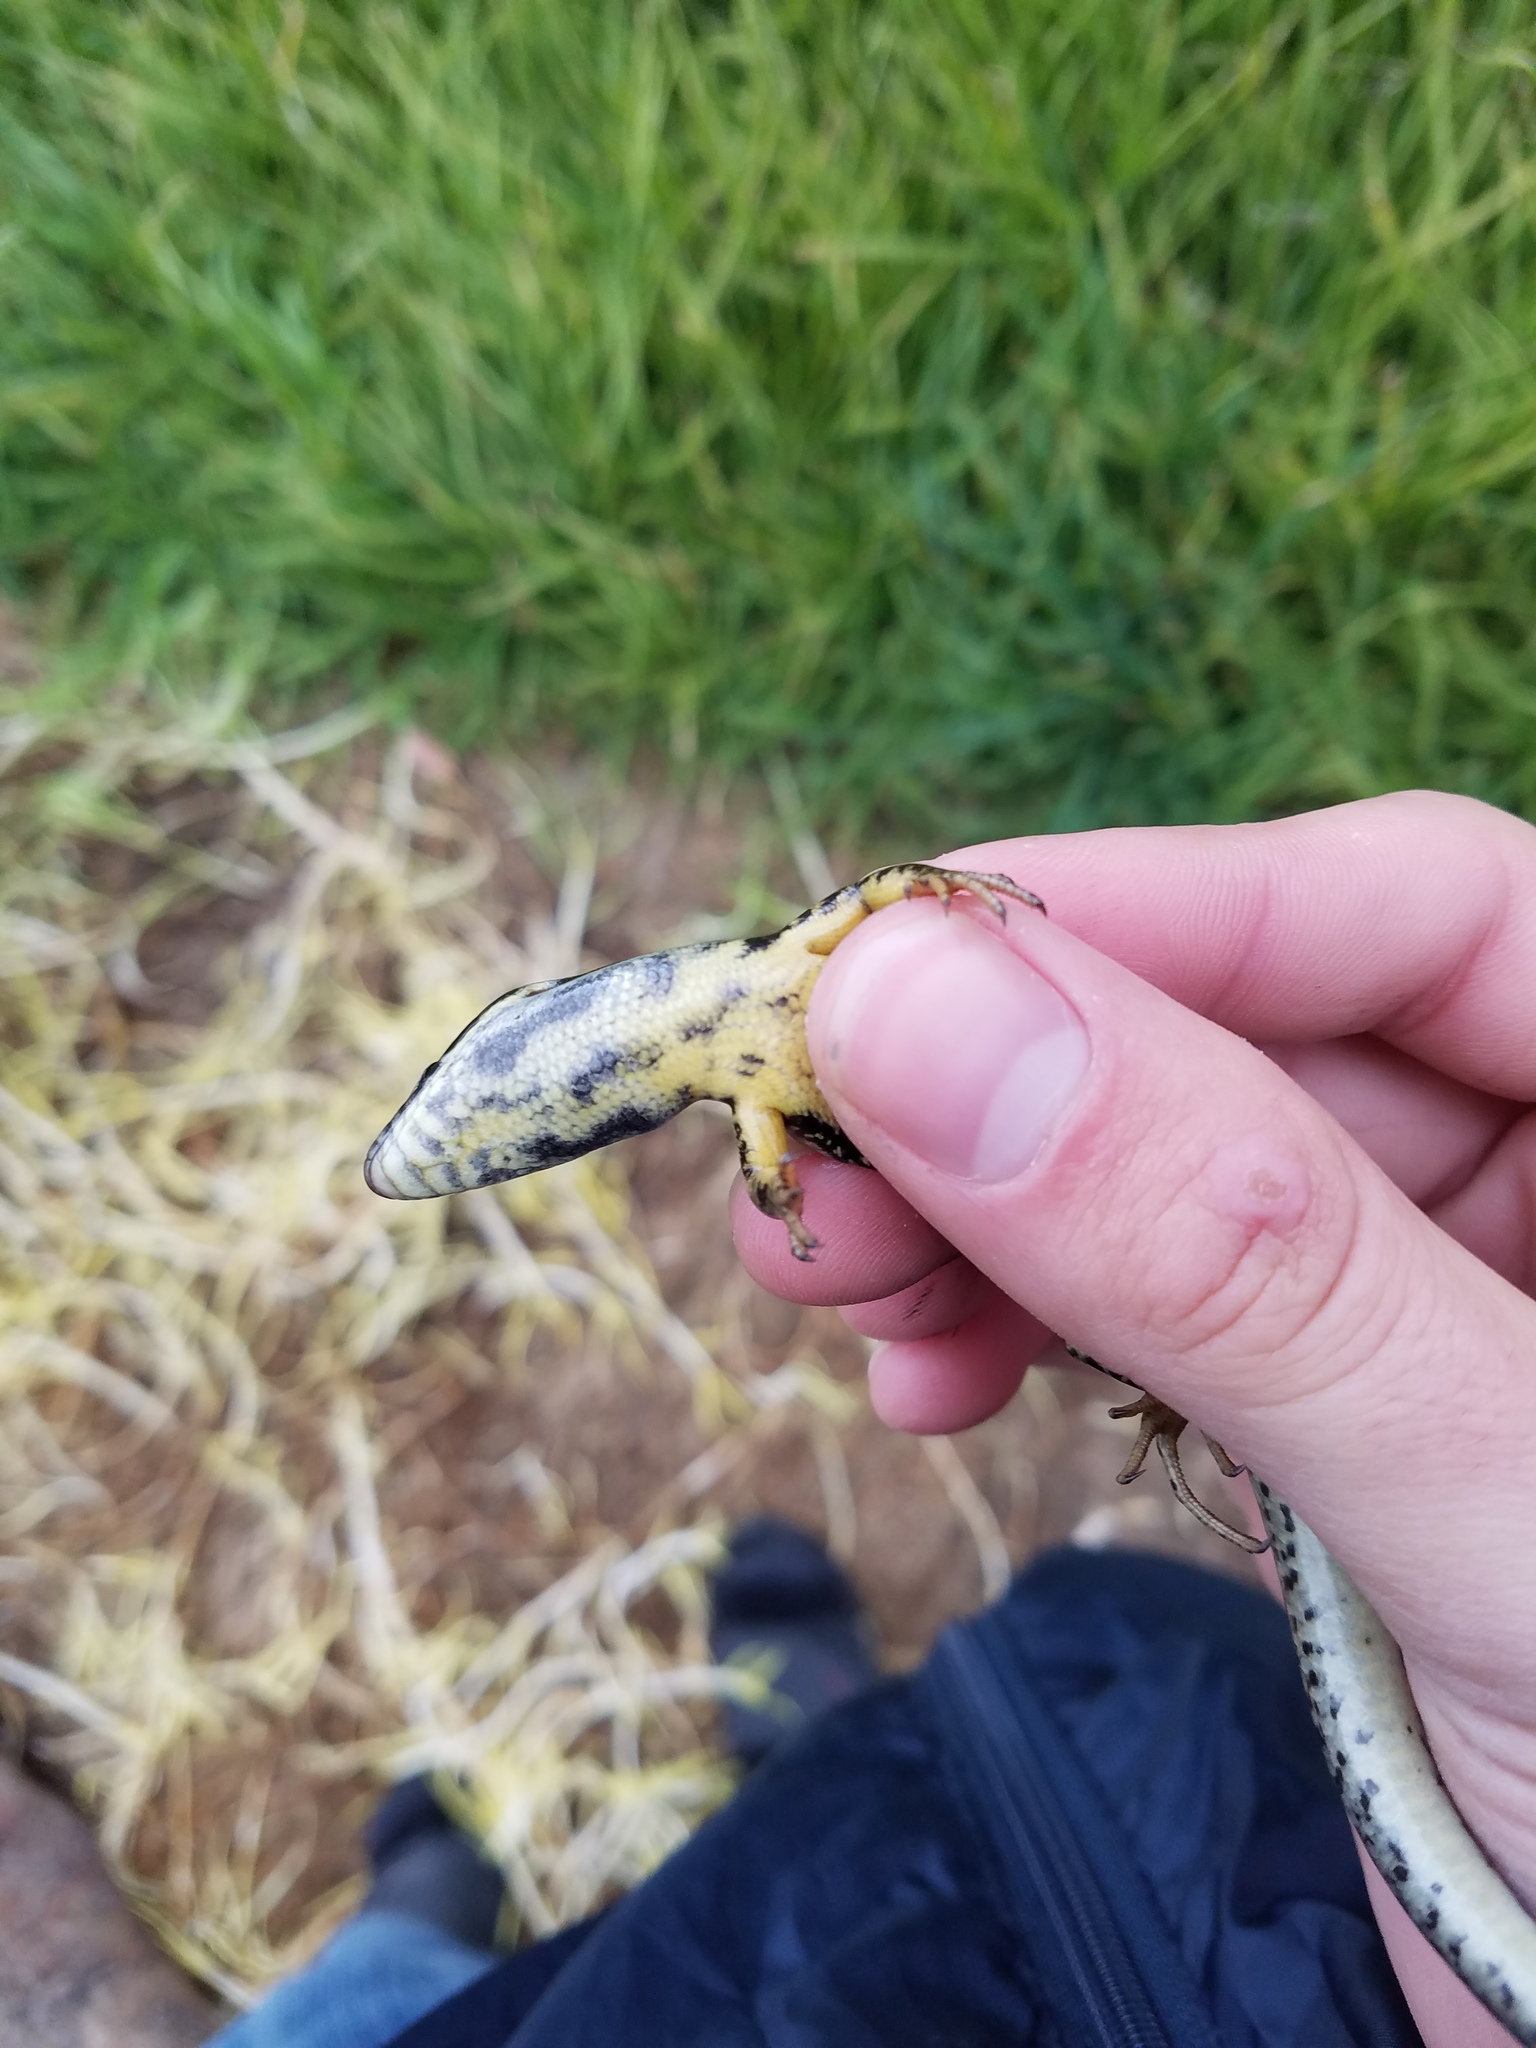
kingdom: Animalia
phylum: Chordata
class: Squamata
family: Scincidae
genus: Eulamprus
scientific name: Eulamprus tympanum
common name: Cool-temperate water-skink
